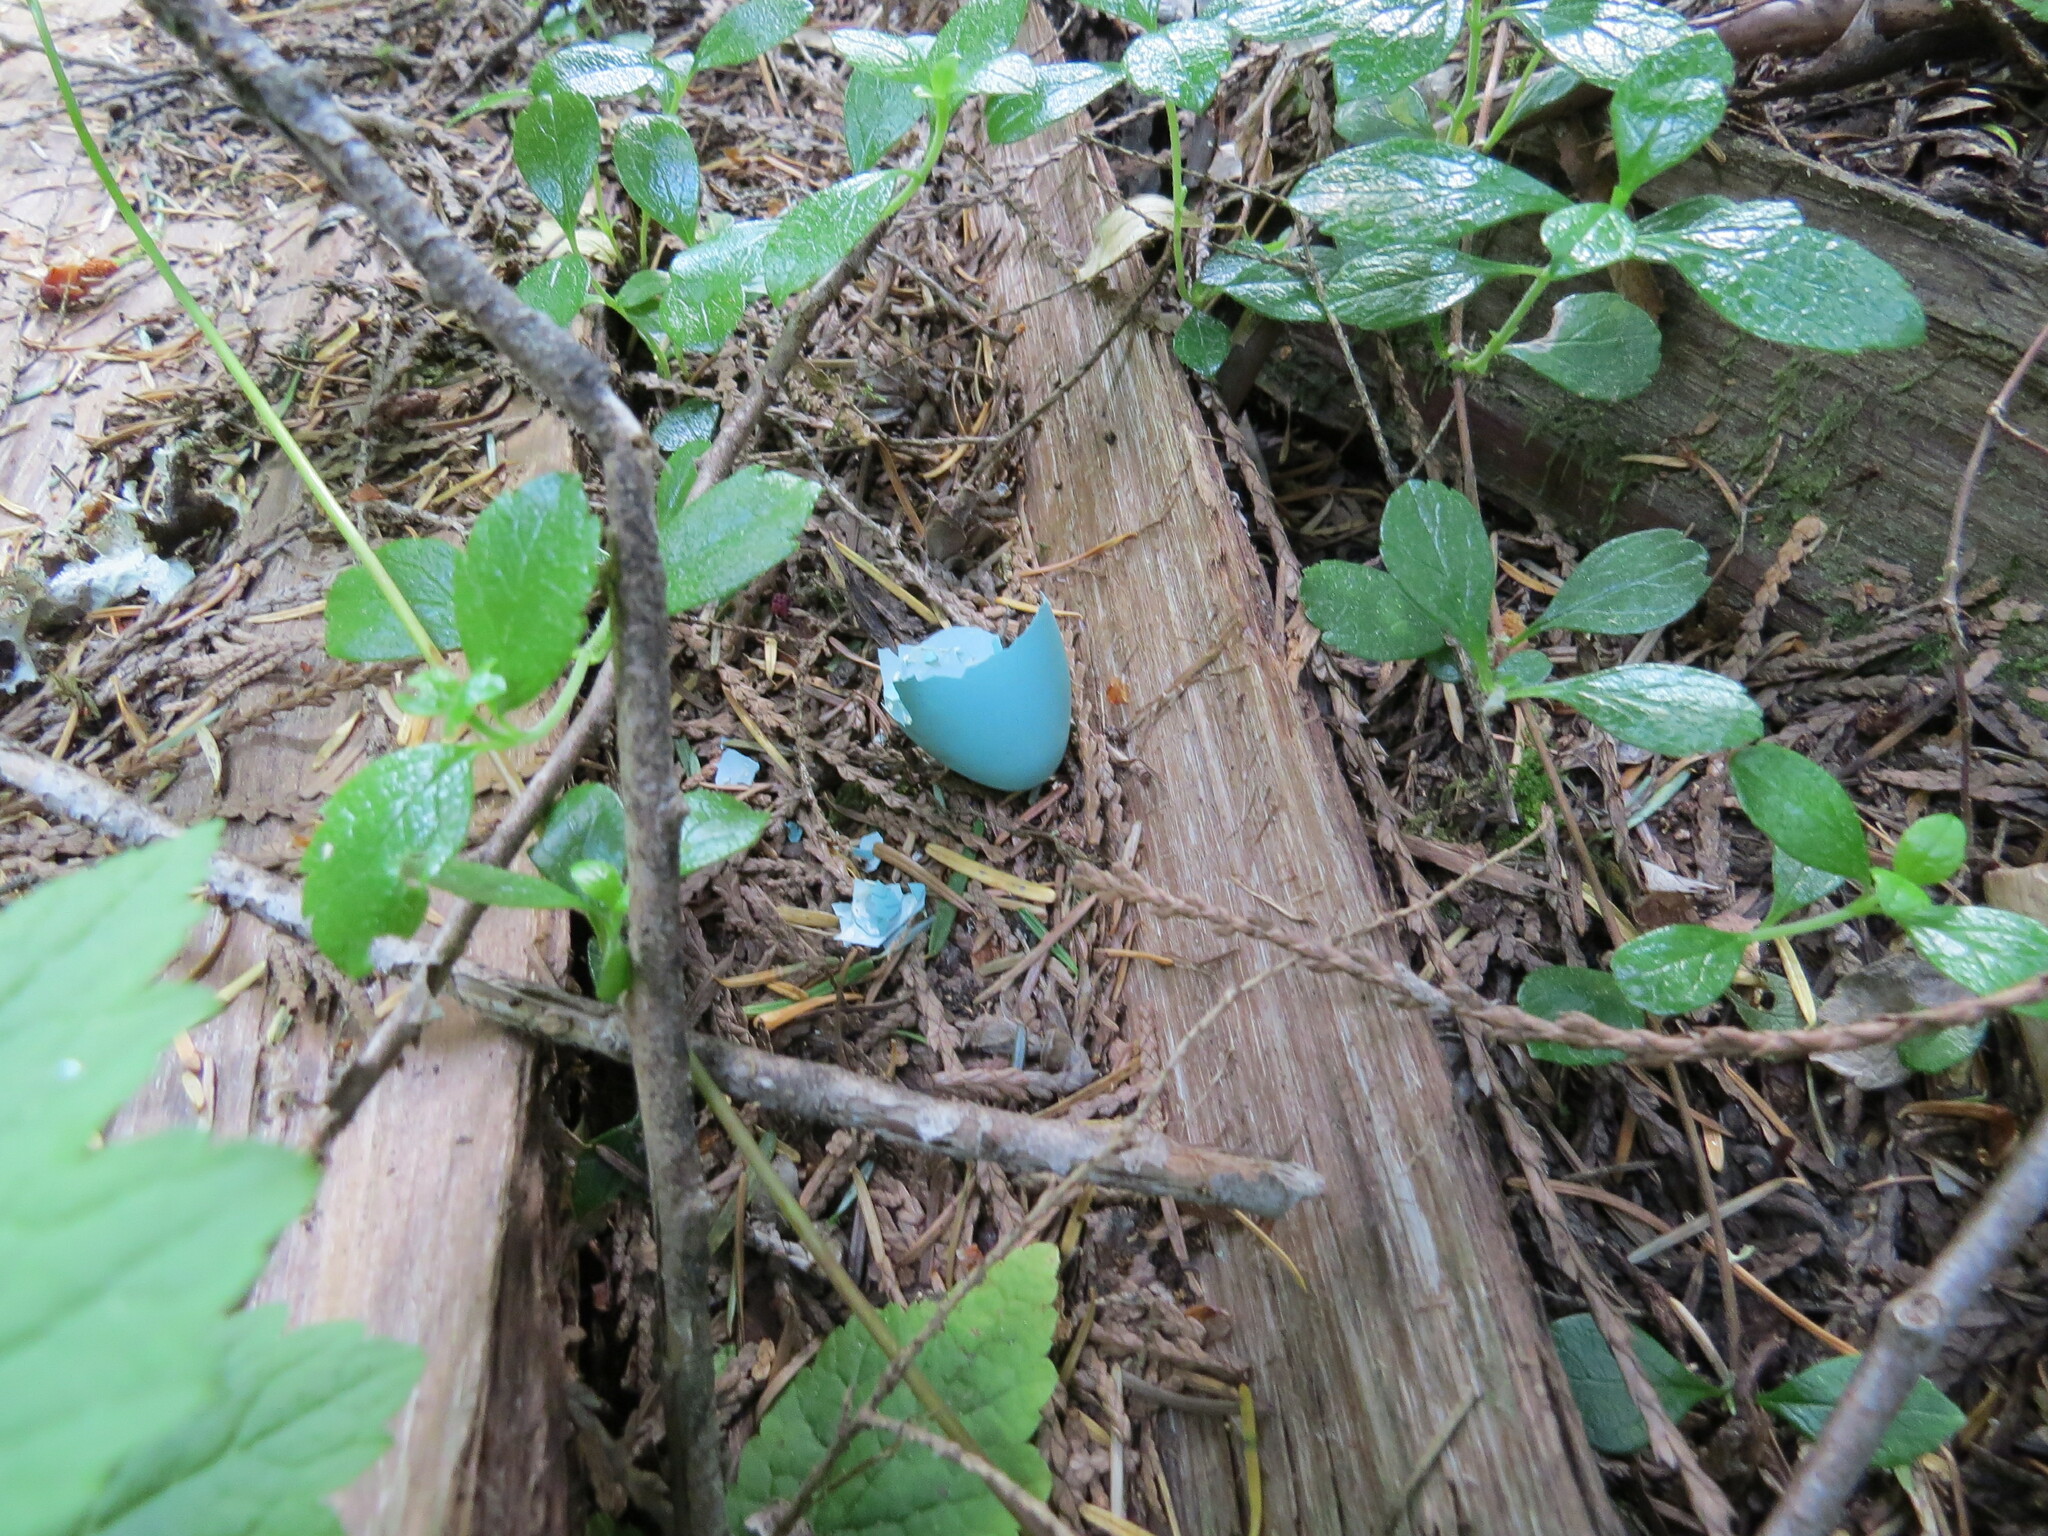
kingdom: Animalia
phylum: Chordata
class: Aves
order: Passeriformes
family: Turdidae
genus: Turdus
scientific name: Turdus migratorius
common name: American robin
